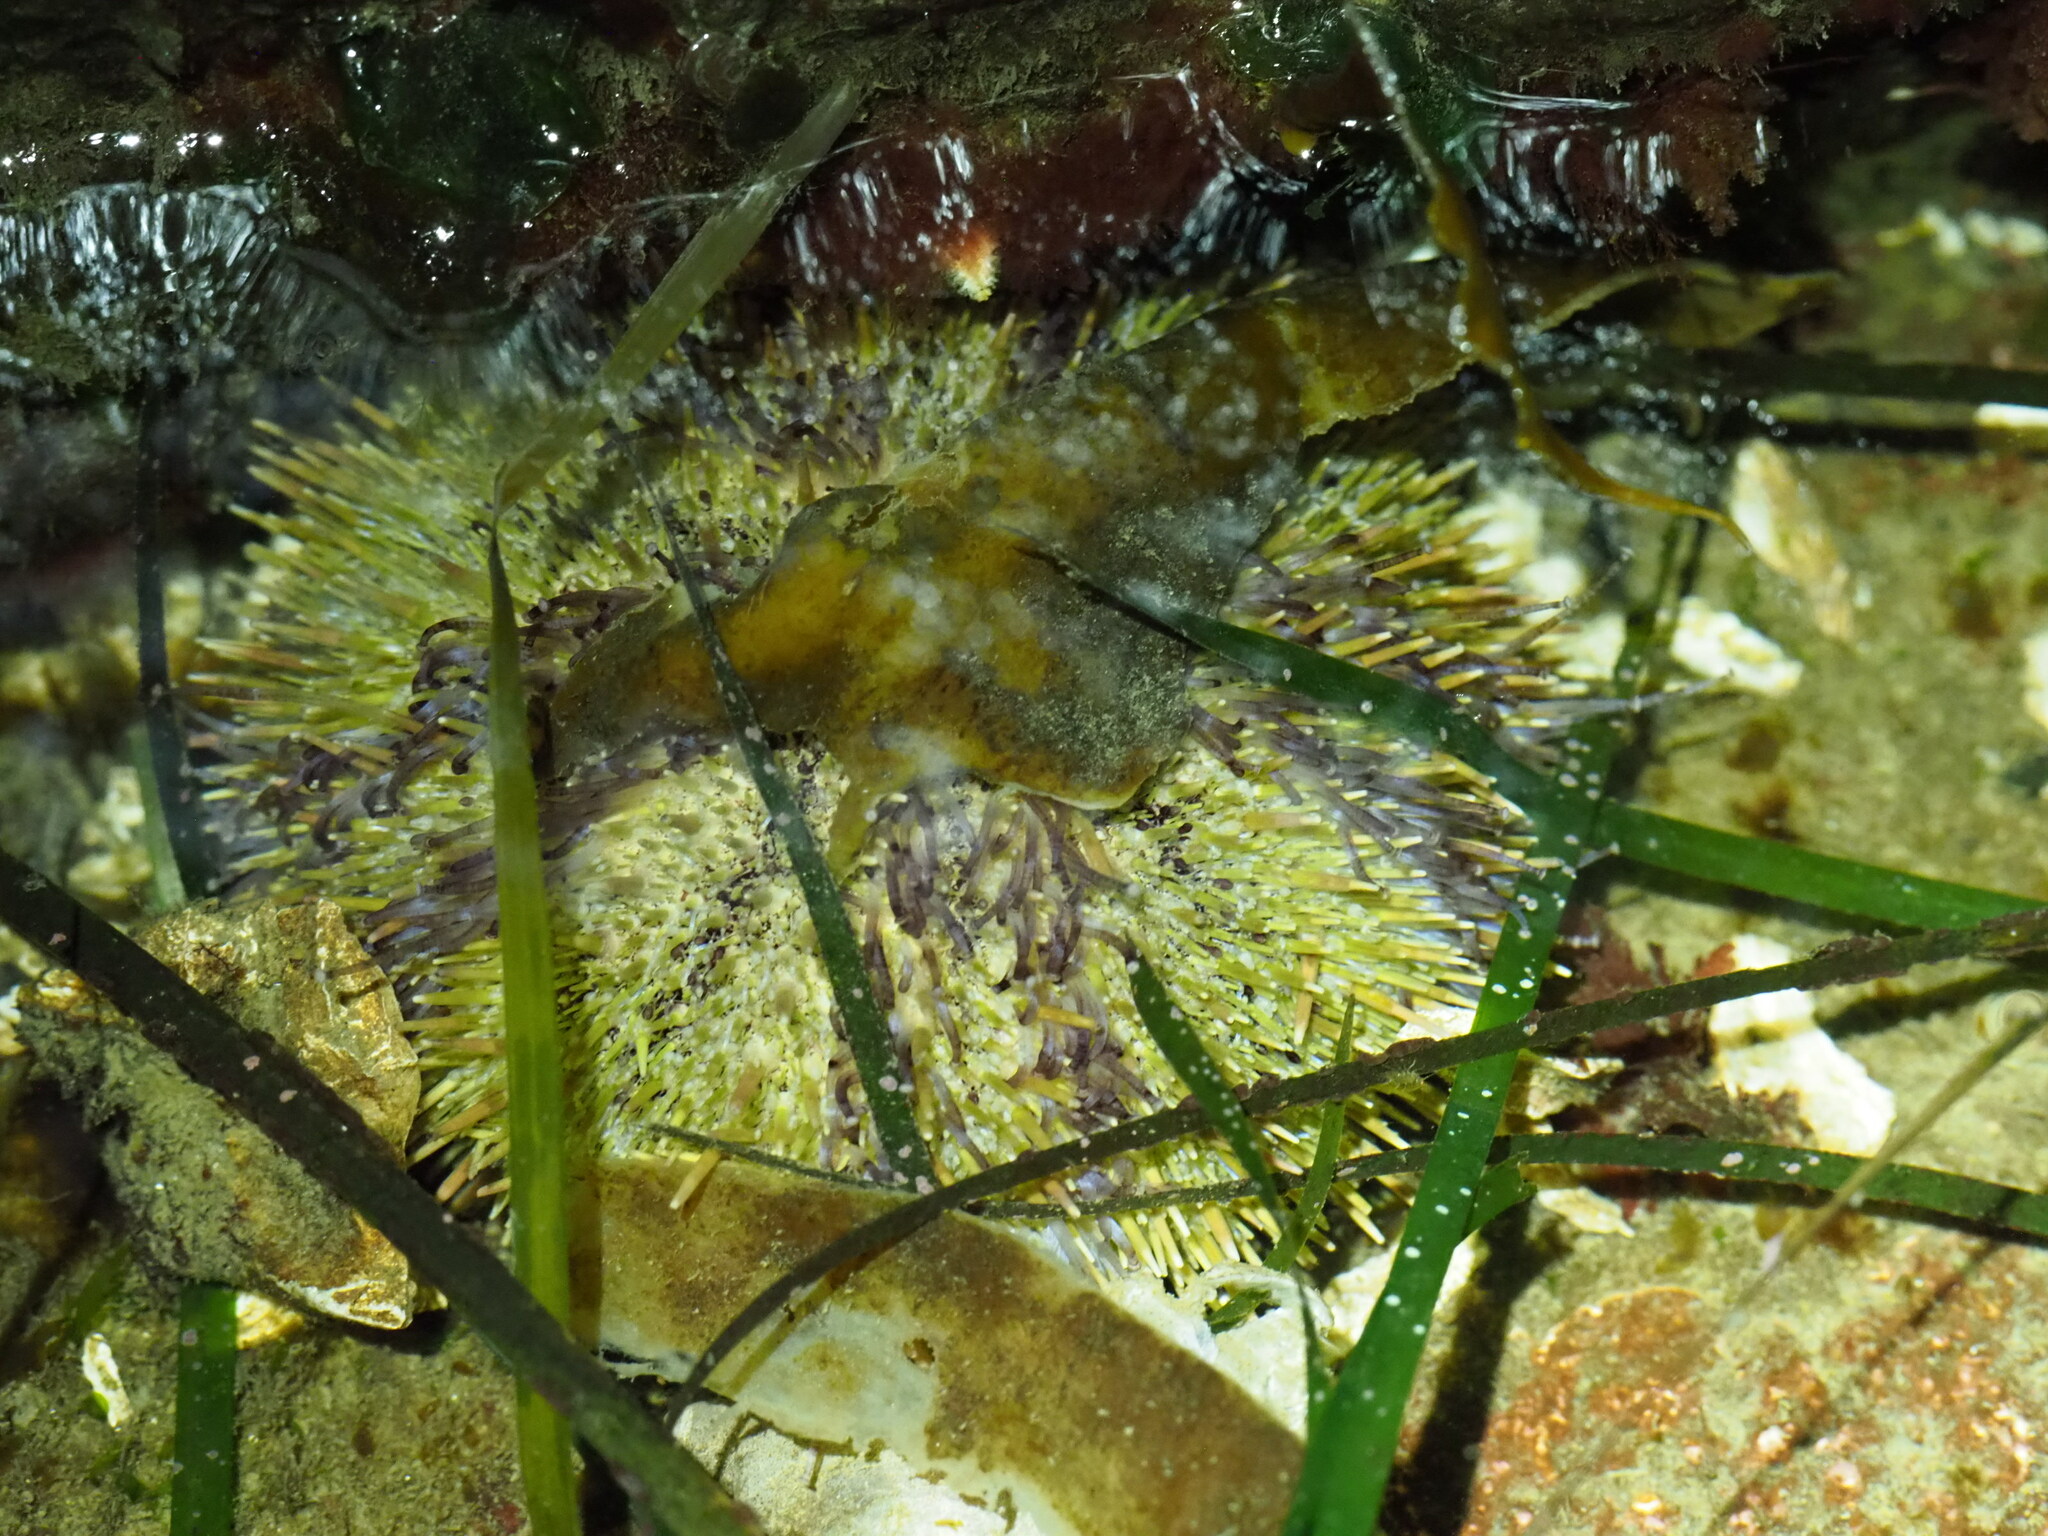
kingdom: Animalia
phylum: Echinodermata
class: Echinoidea
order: Camarodonta
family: Strongylocentrotidae
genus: Strongylocentrotus
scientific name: Strongylocentrotus droebachiensis
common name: Northern sea urchin
